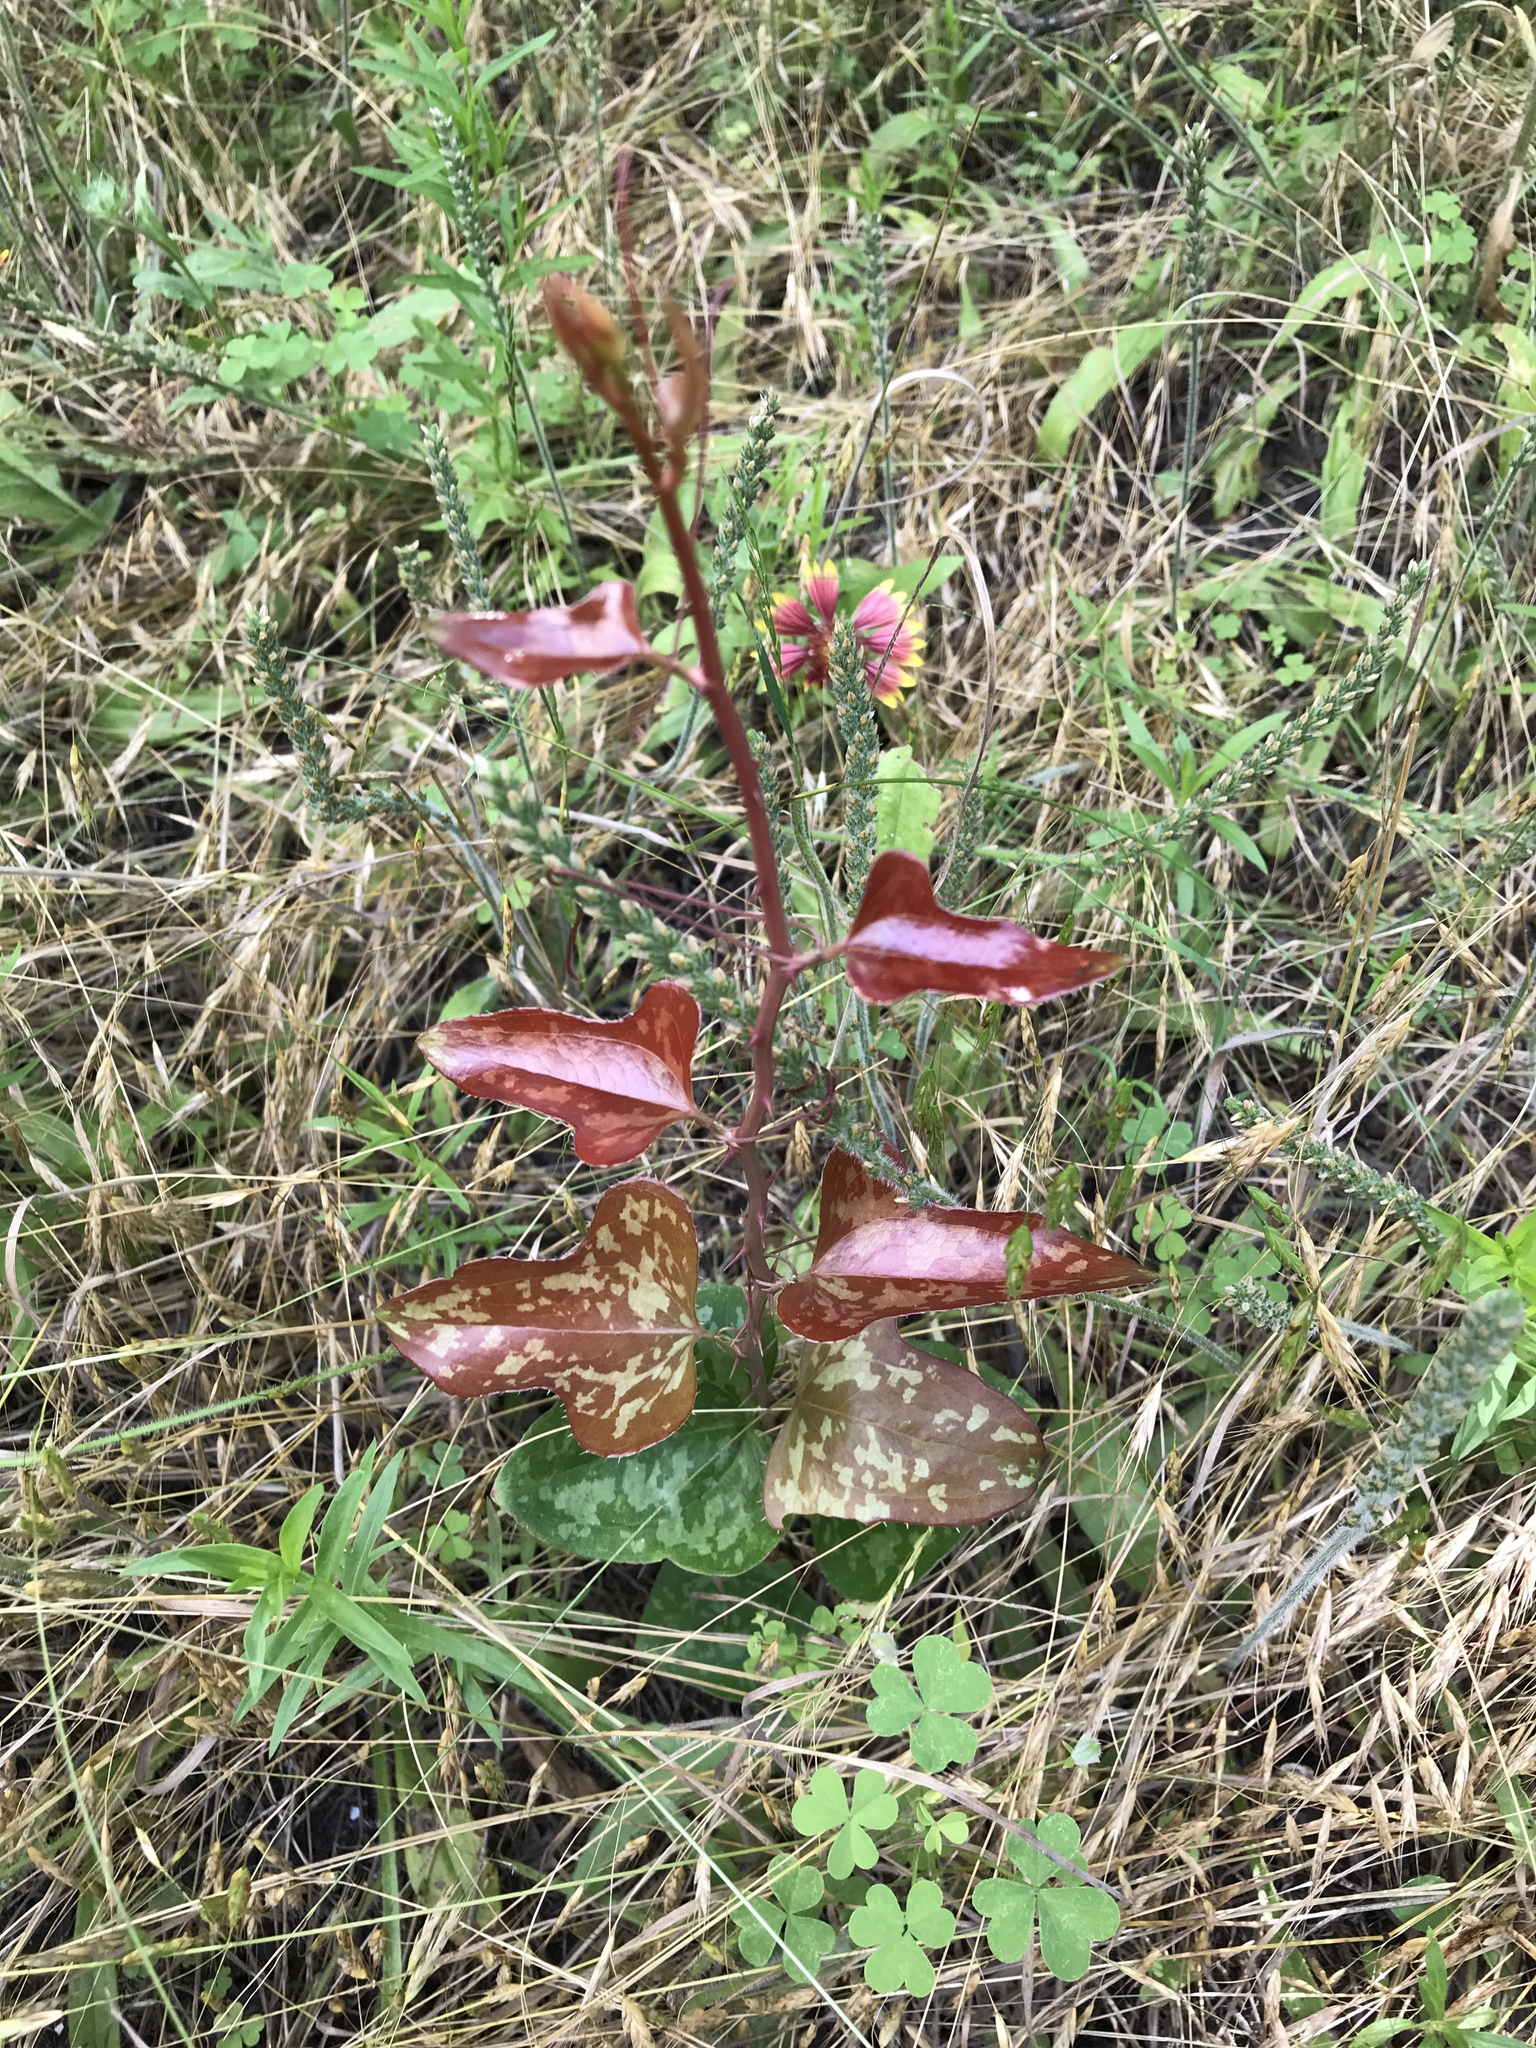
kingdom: Plantae
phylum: Tracheophyta
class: Liliopsida
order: Liliales
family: Smilacaceae
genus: Smilax
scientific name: Smilax bona-nox
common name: Catbrier
